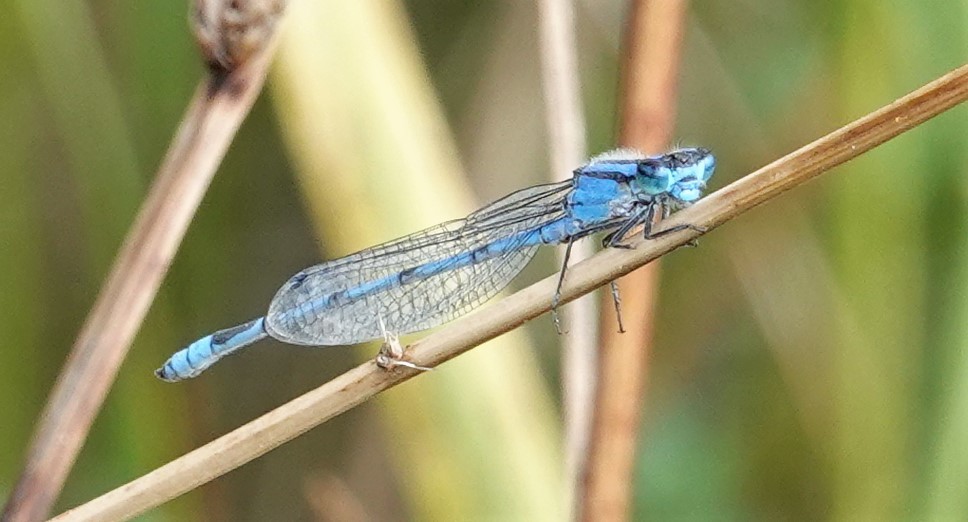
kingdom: Animalia
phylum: Arthropoda
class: Insecta
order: Odonata
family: Coenagrionidae
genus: Enallagma
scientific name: Enallagma civile
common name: Damselfly
